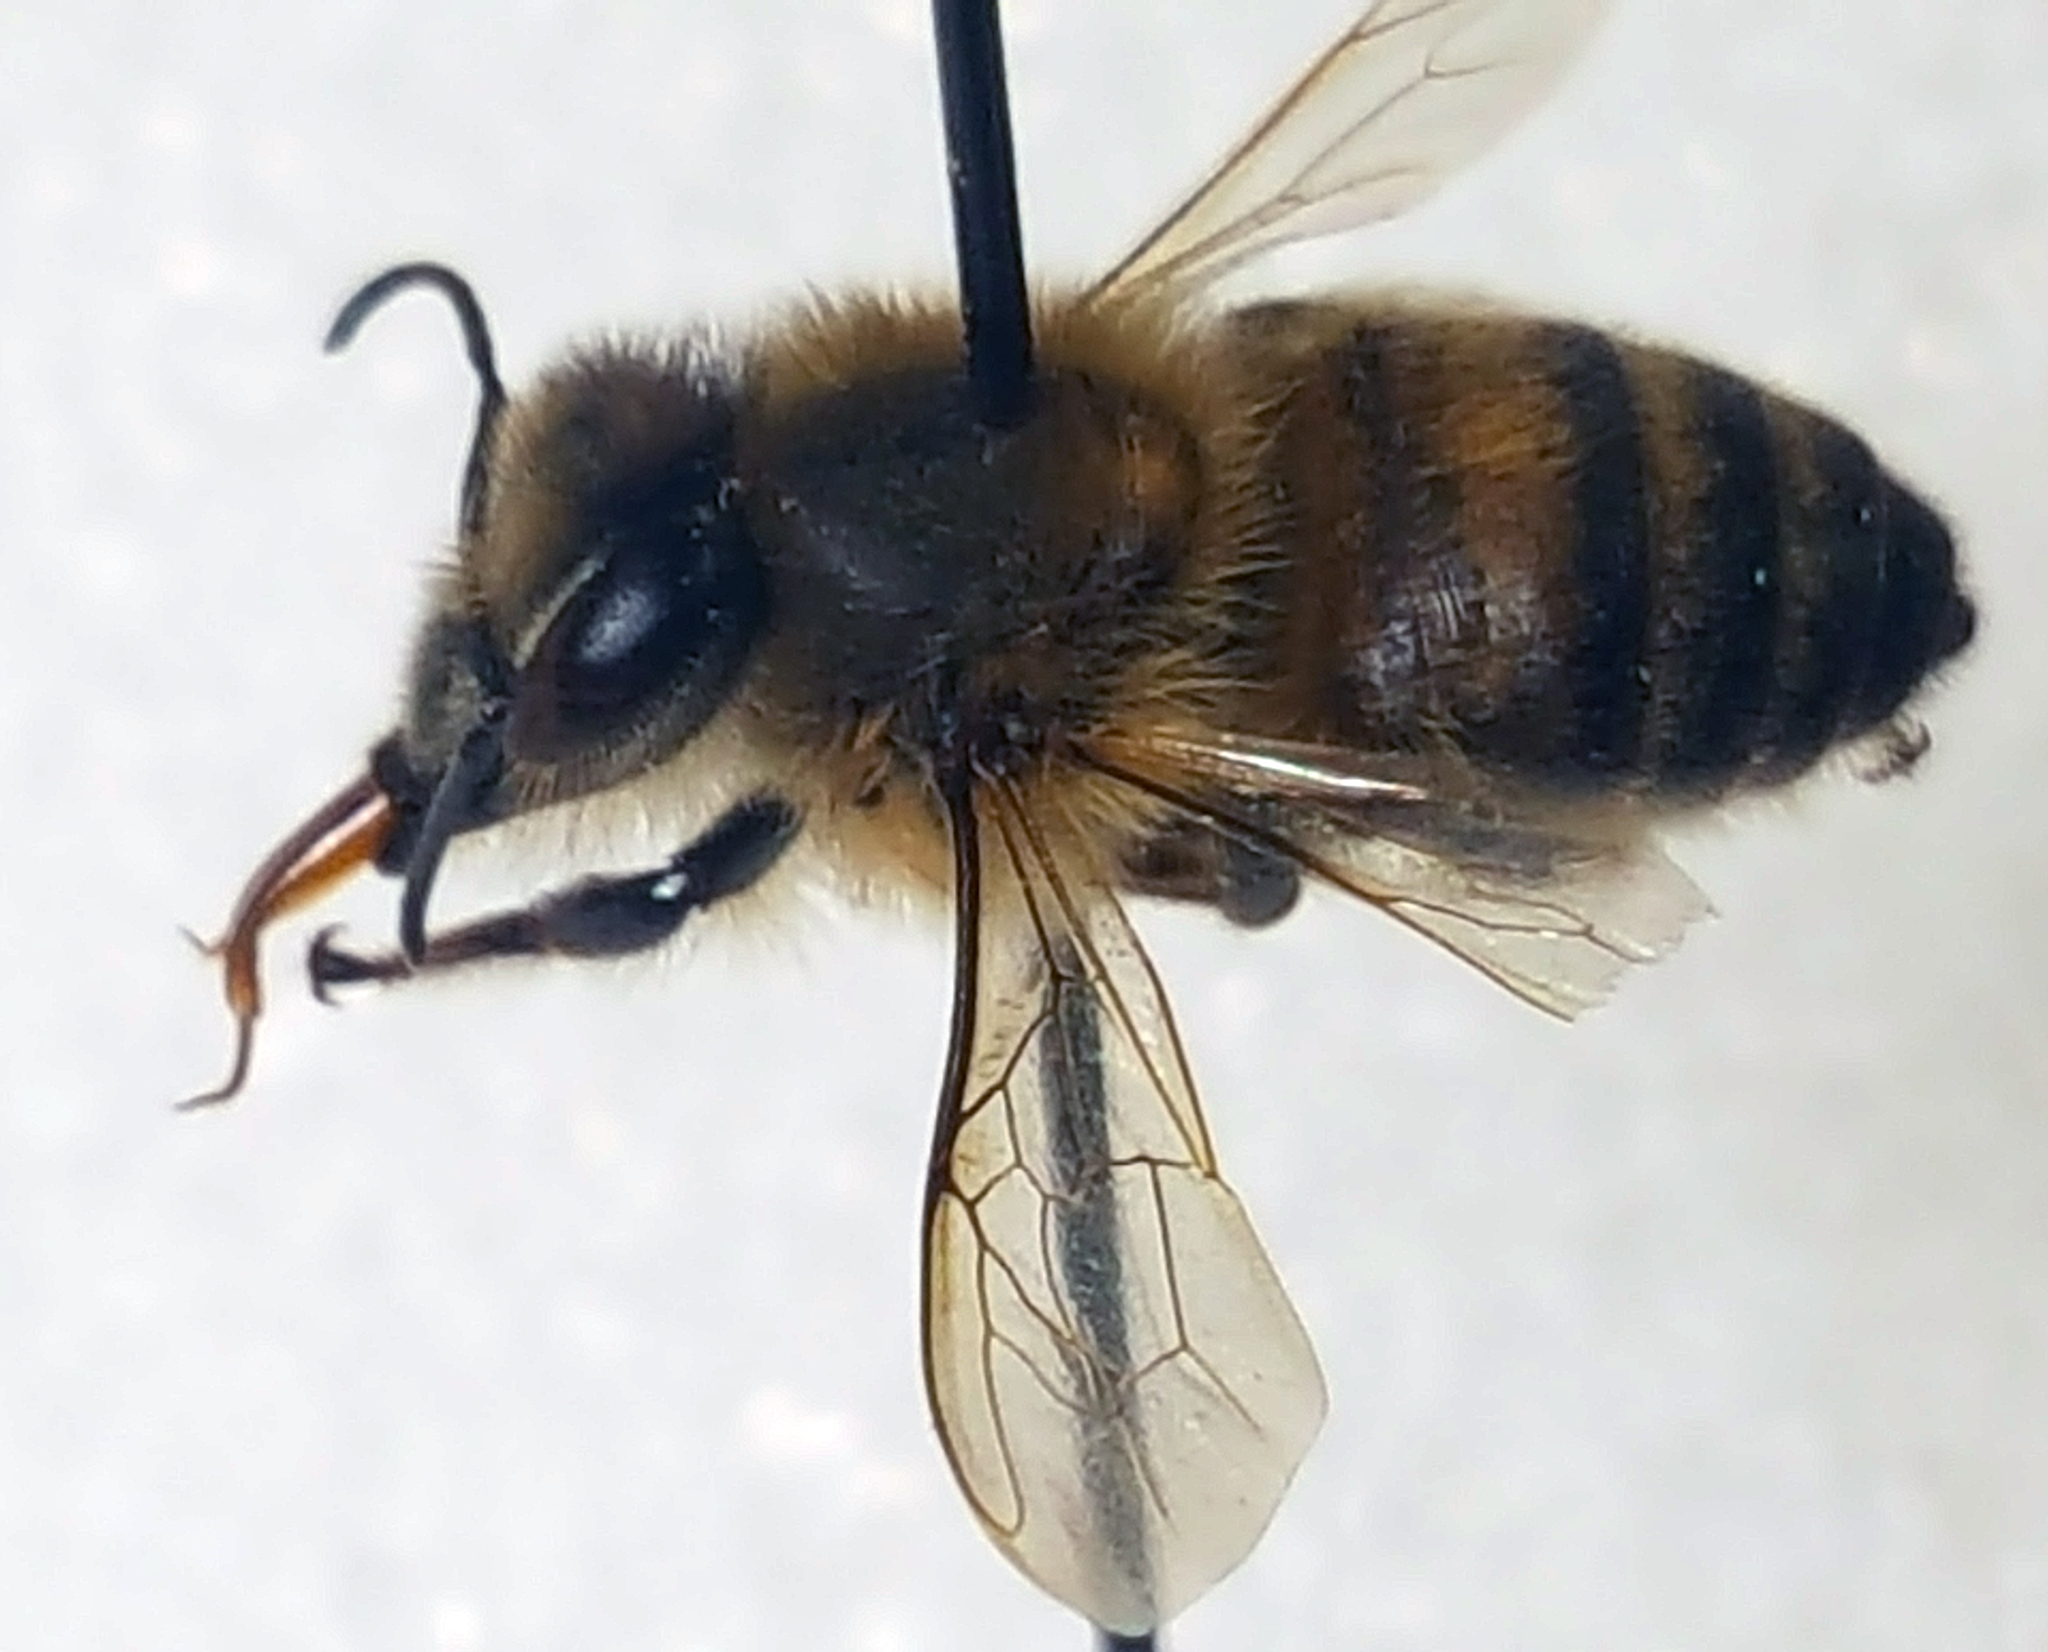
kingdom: Animalia
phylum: Arthropoda
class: Insecta
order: Hymenoptera
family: Apidae
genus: Apis
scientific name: Apis mellifera
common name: Honey bee
